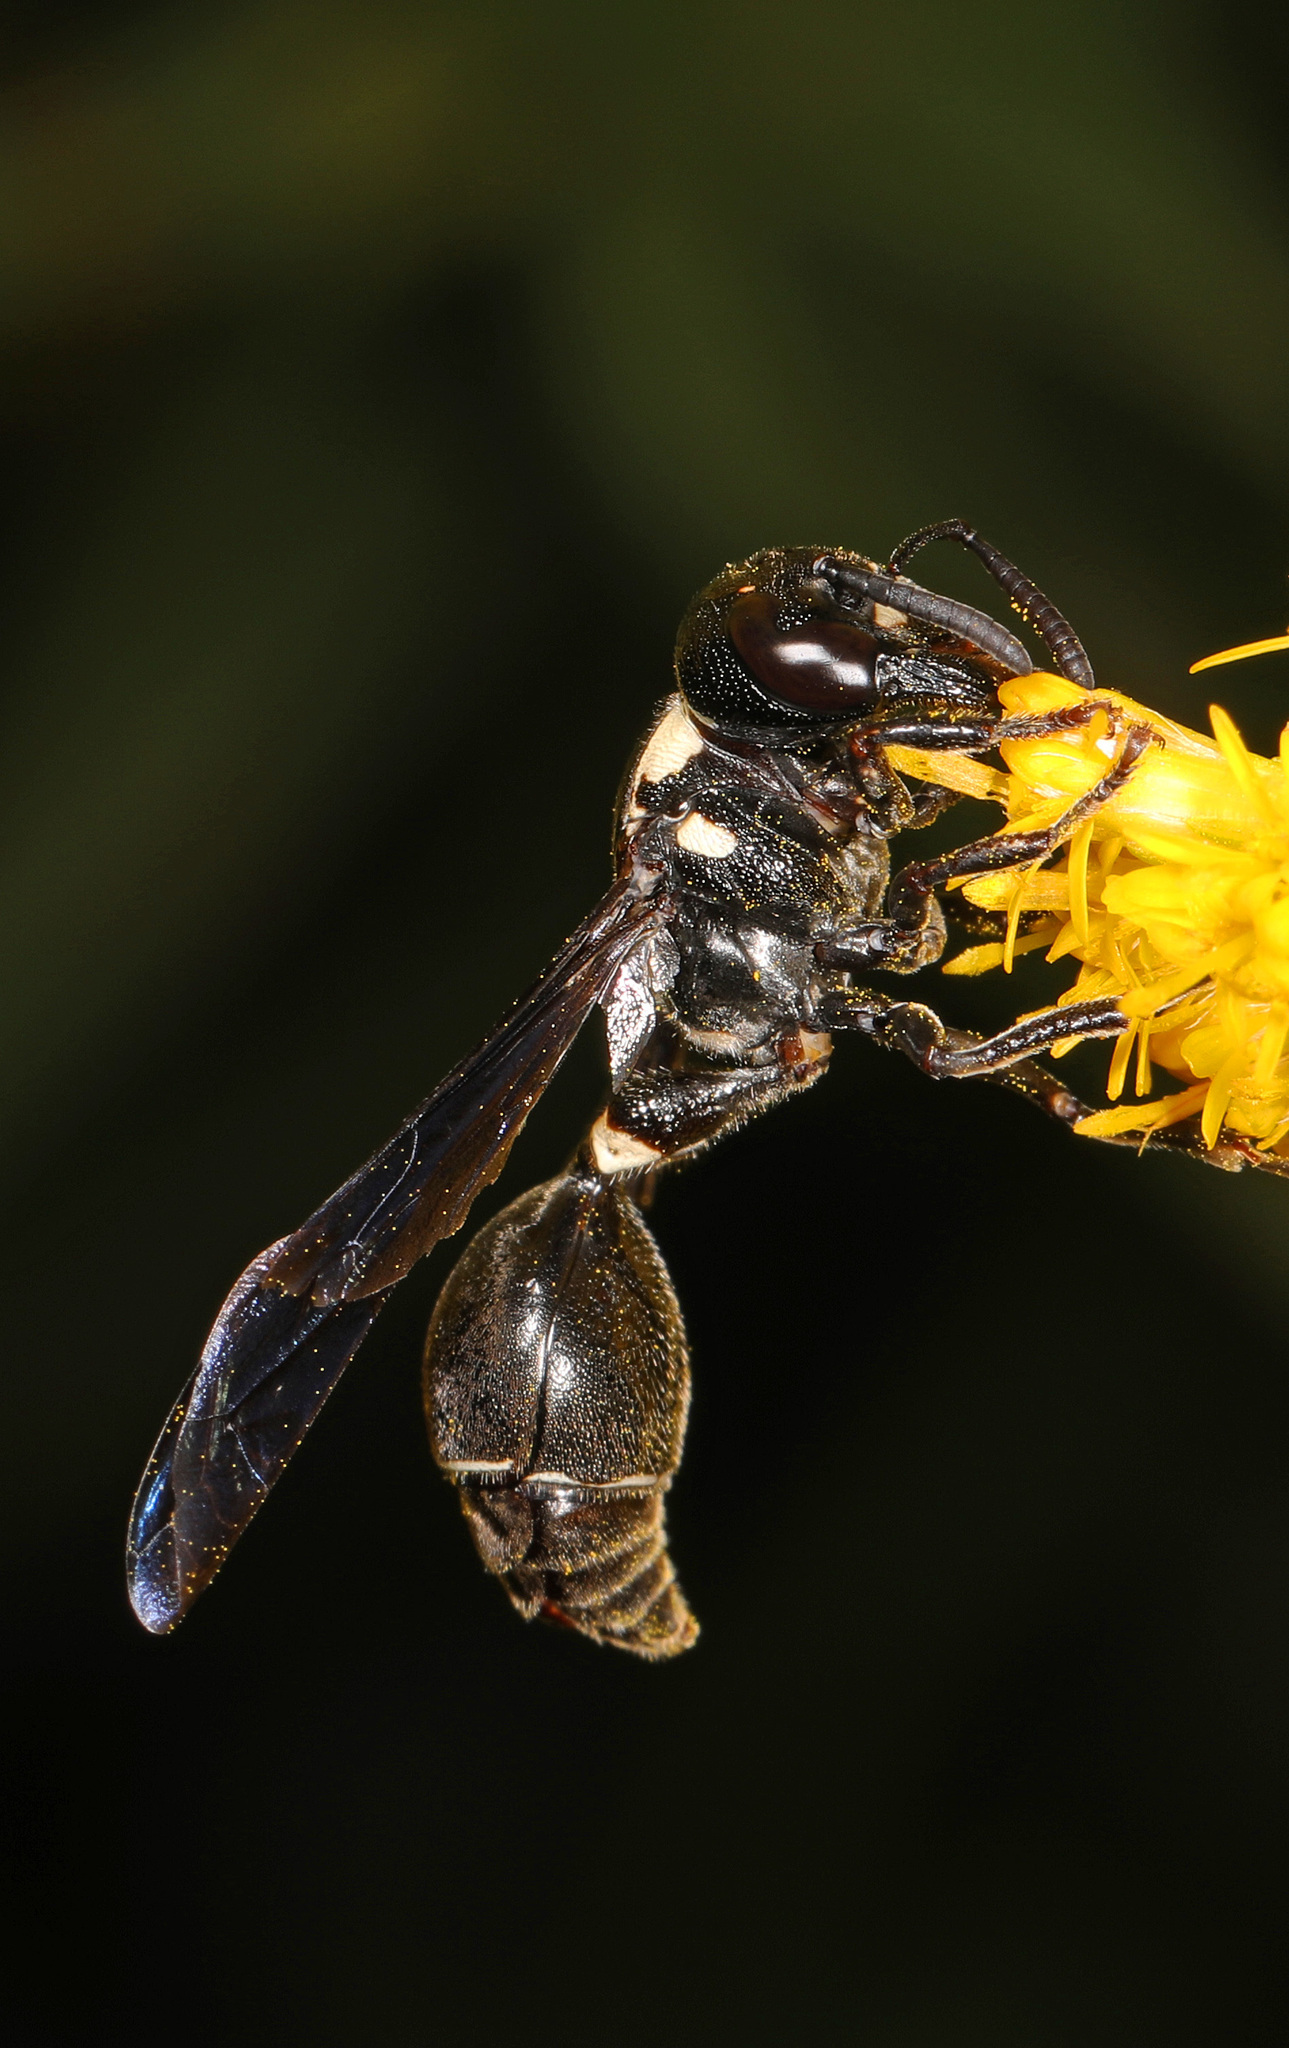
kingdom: Animalia
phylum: Arthropoda
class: Insecta
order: Hymenoptera
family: Eumenidae
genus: Zethus
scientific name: Zethus spinipes
